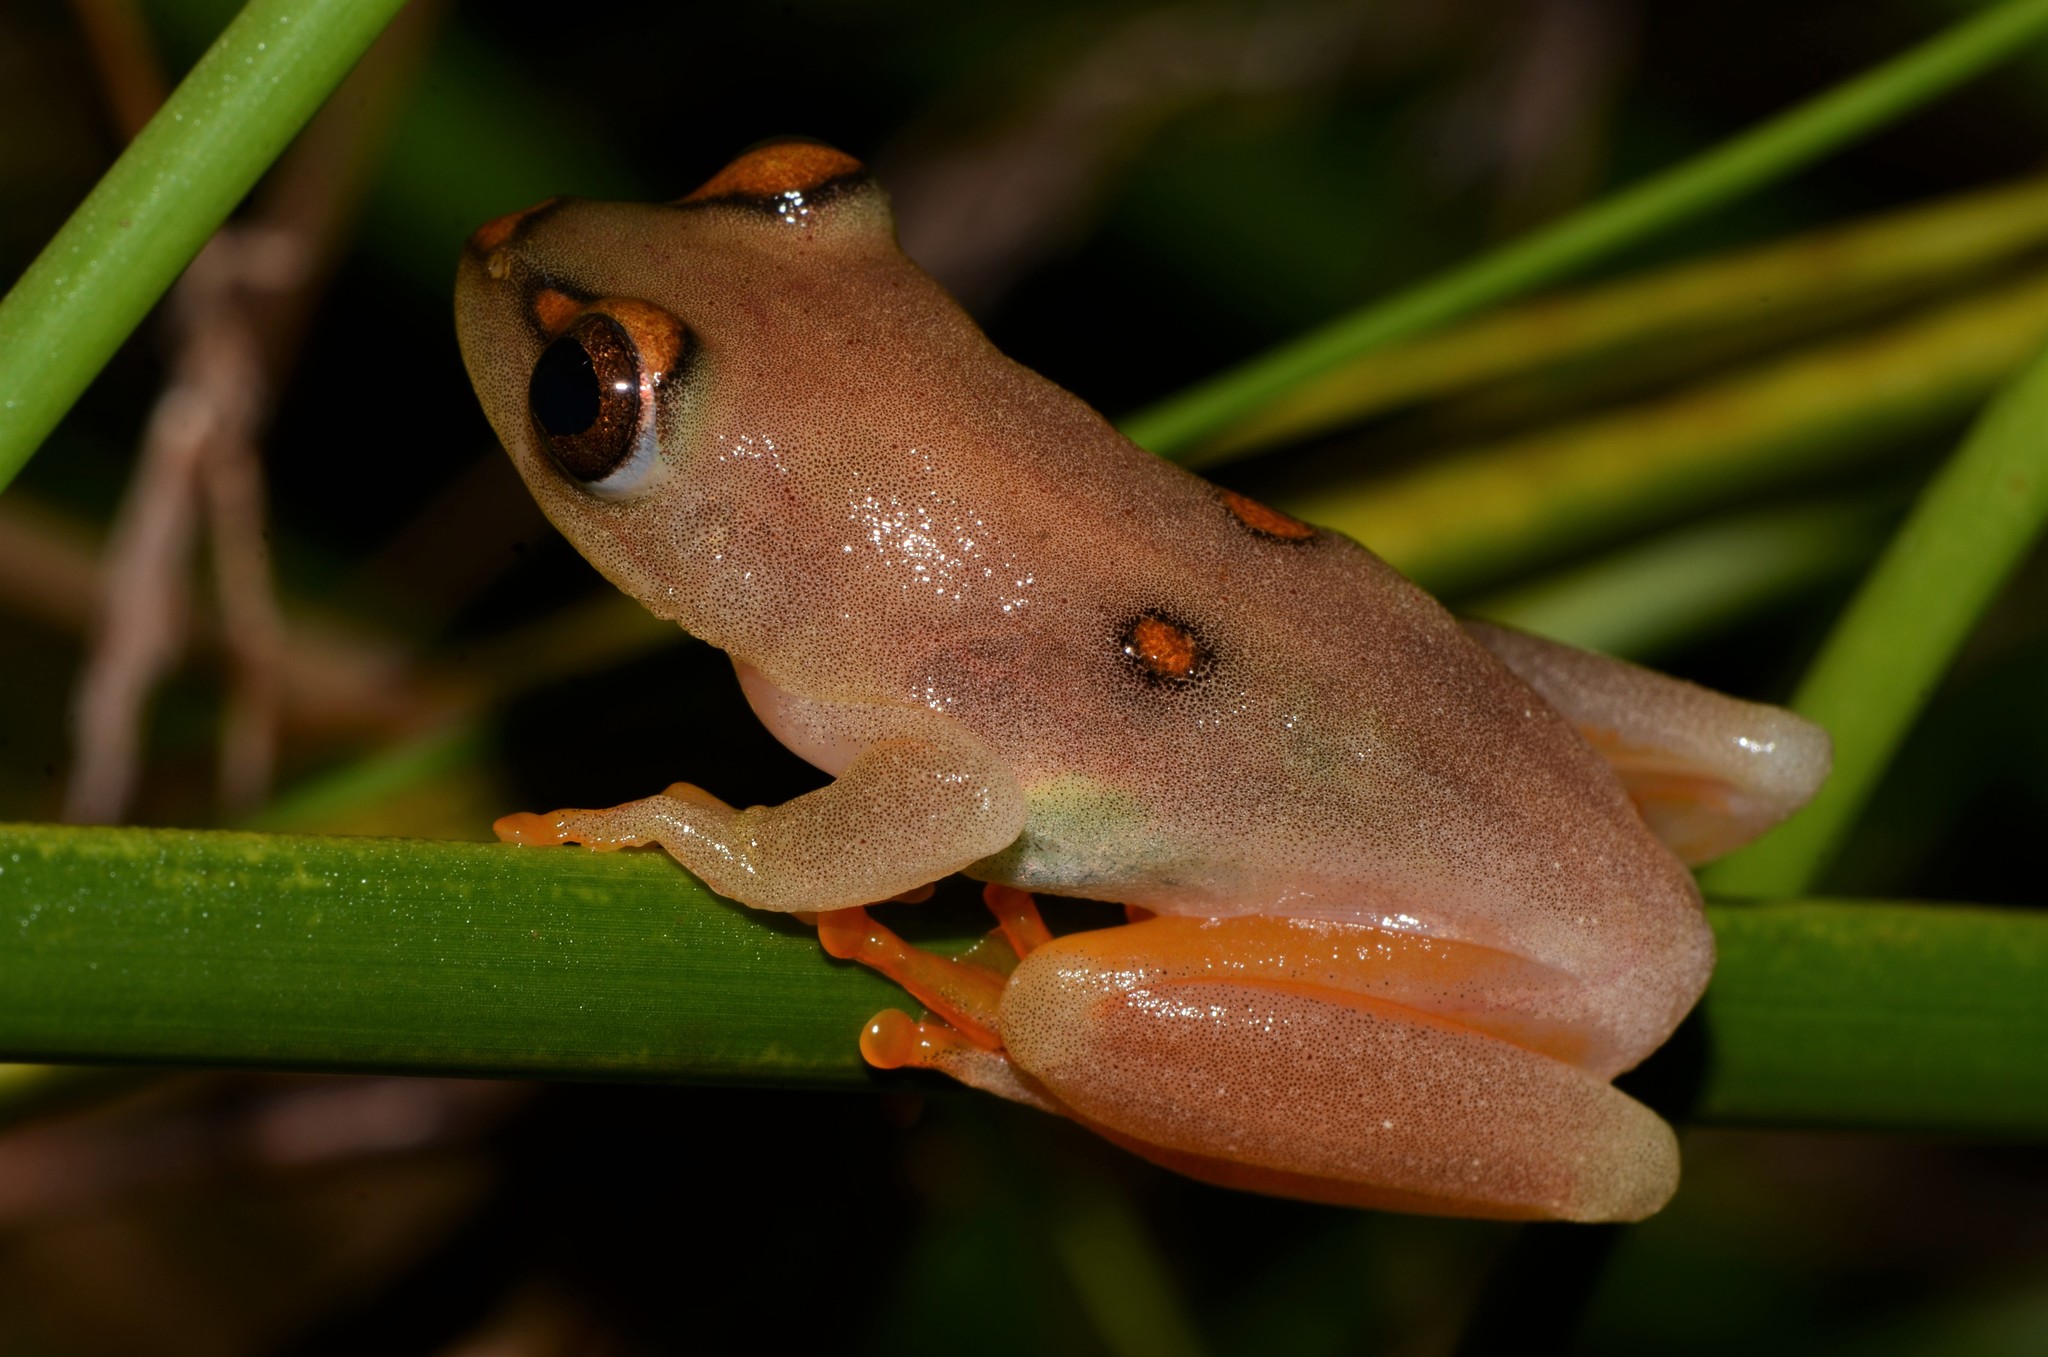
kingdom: Animalia
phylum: Chordata
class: Amphibia
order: Anura
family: Hyperoliidae
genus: Hyperolius
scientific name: Hyperolius argus
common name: Argus reed frog
